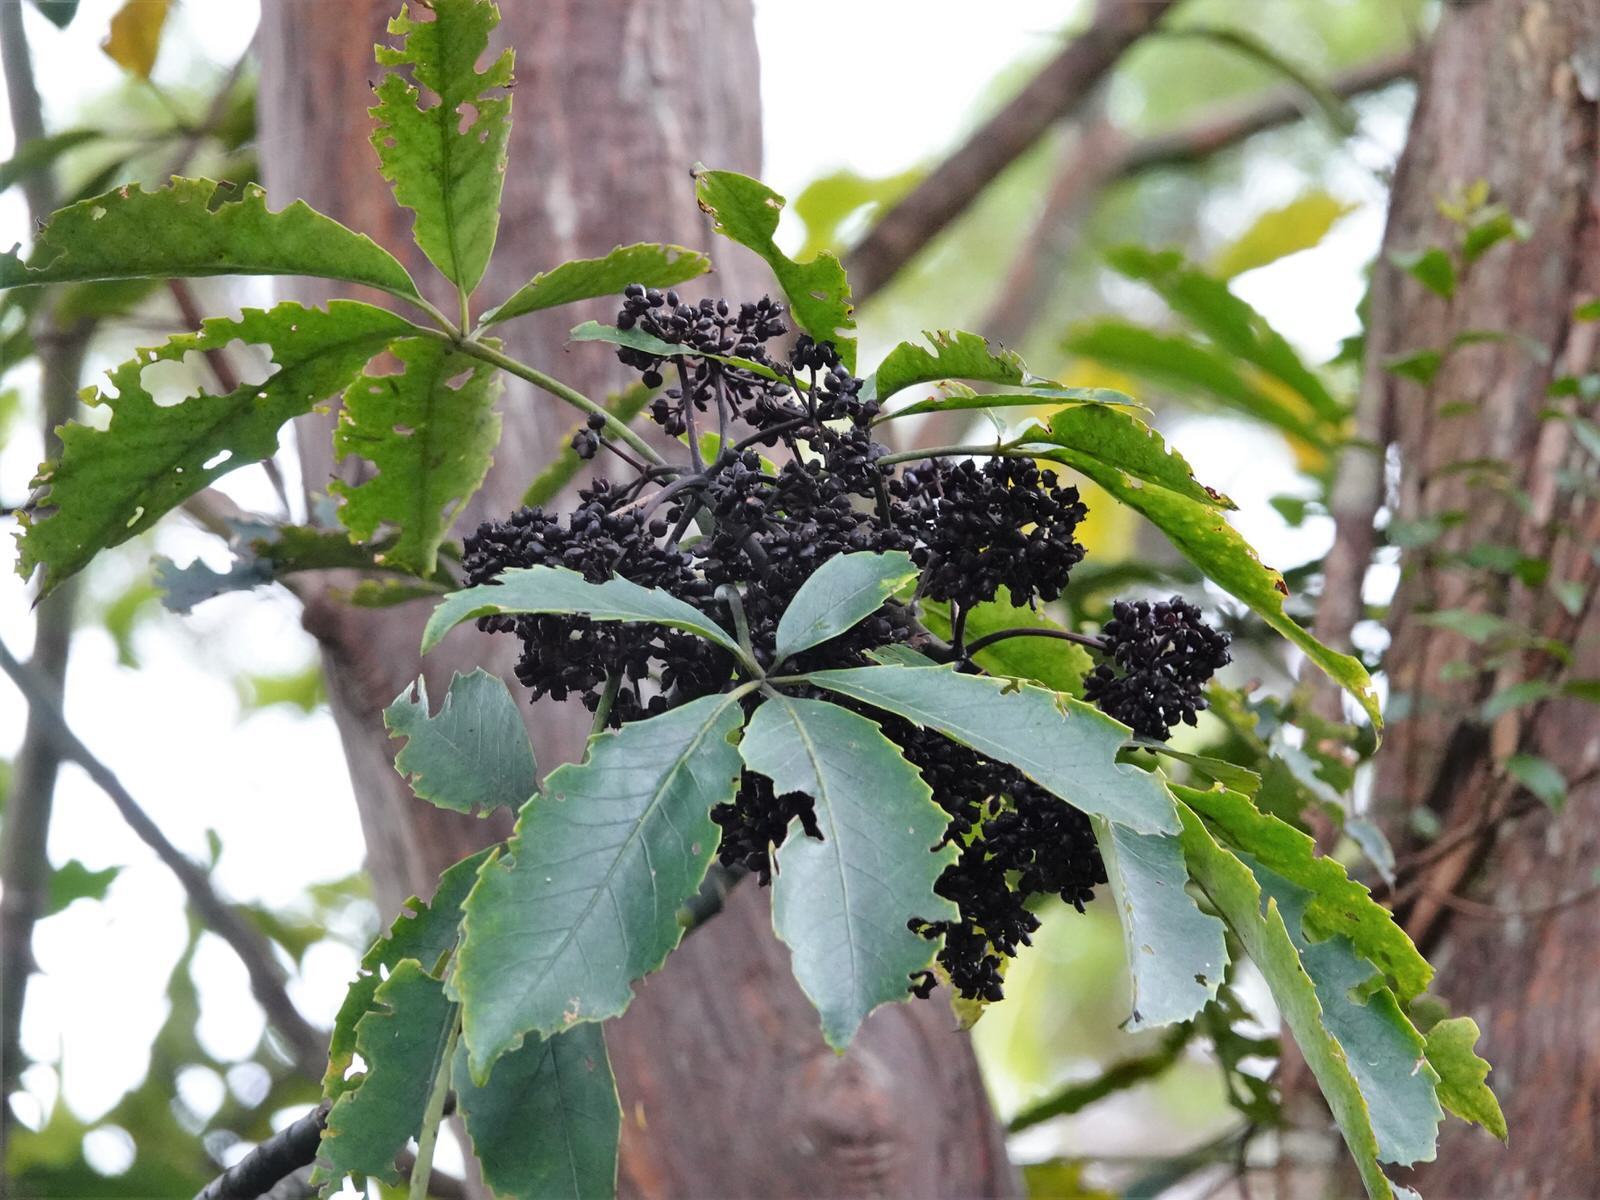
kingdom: Plantae
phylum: Tracheophyta
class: Magnoliopsida
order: Apiales
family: Araliaceae
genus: Neopanax
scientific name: Neopanax arboreus
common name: Five-fingers
